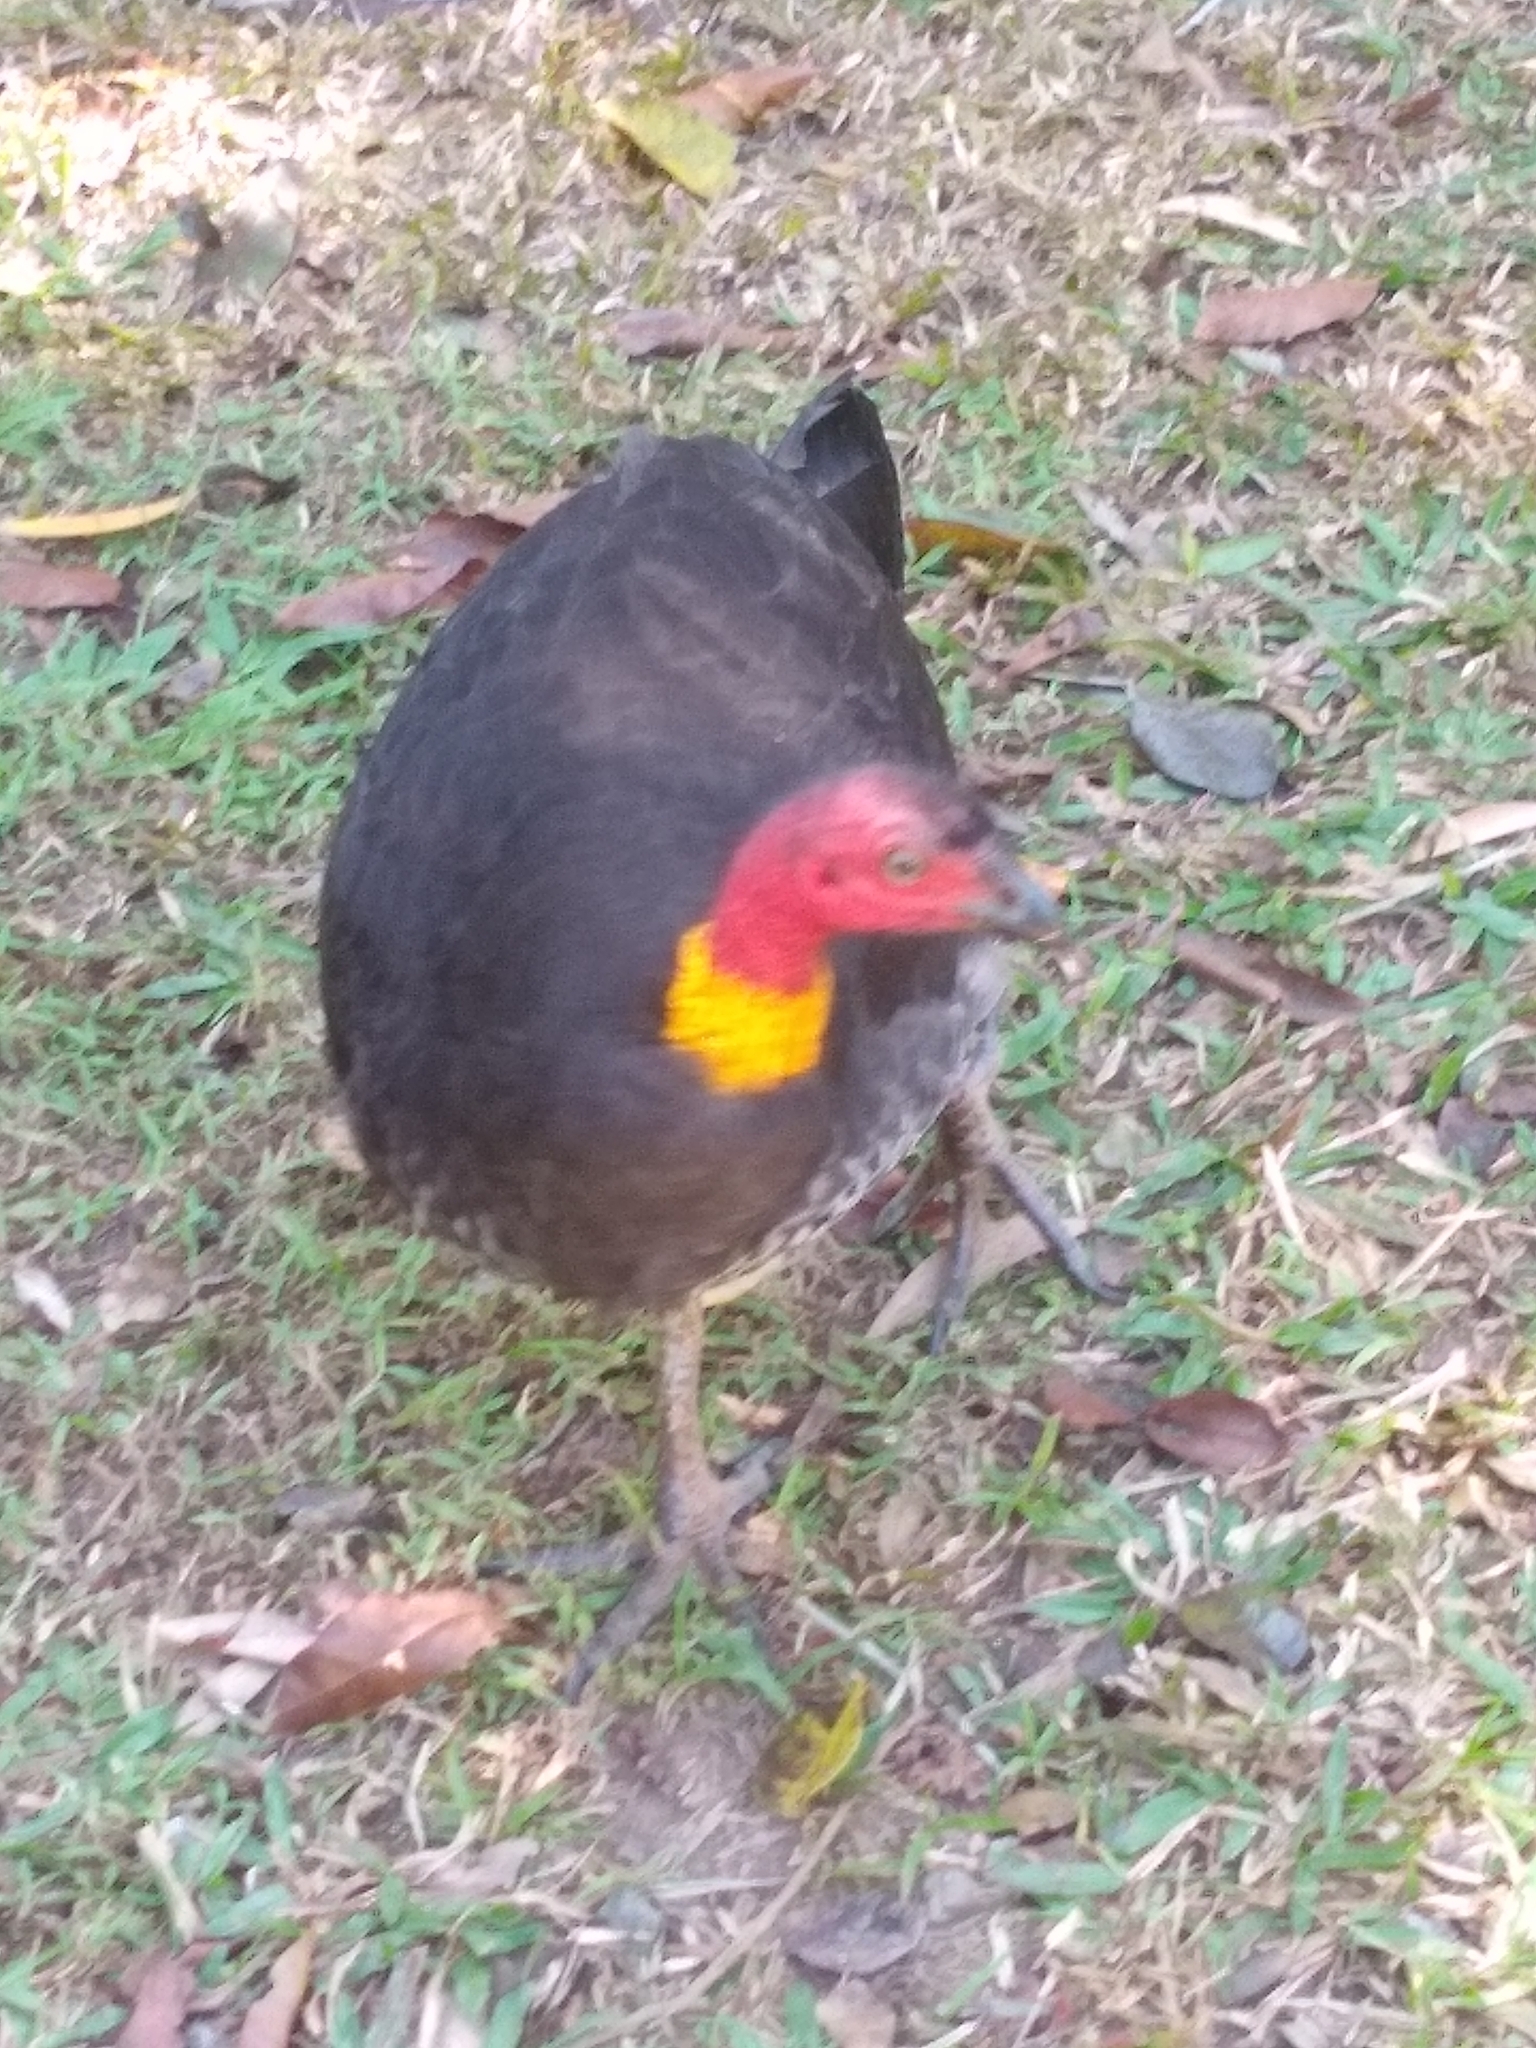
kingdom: Animalia
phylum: Chordata
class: Aves
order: Galliformes
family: Megapodiidae
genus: Alectura
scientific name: Alectura lathami
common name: Australian brushturkey
